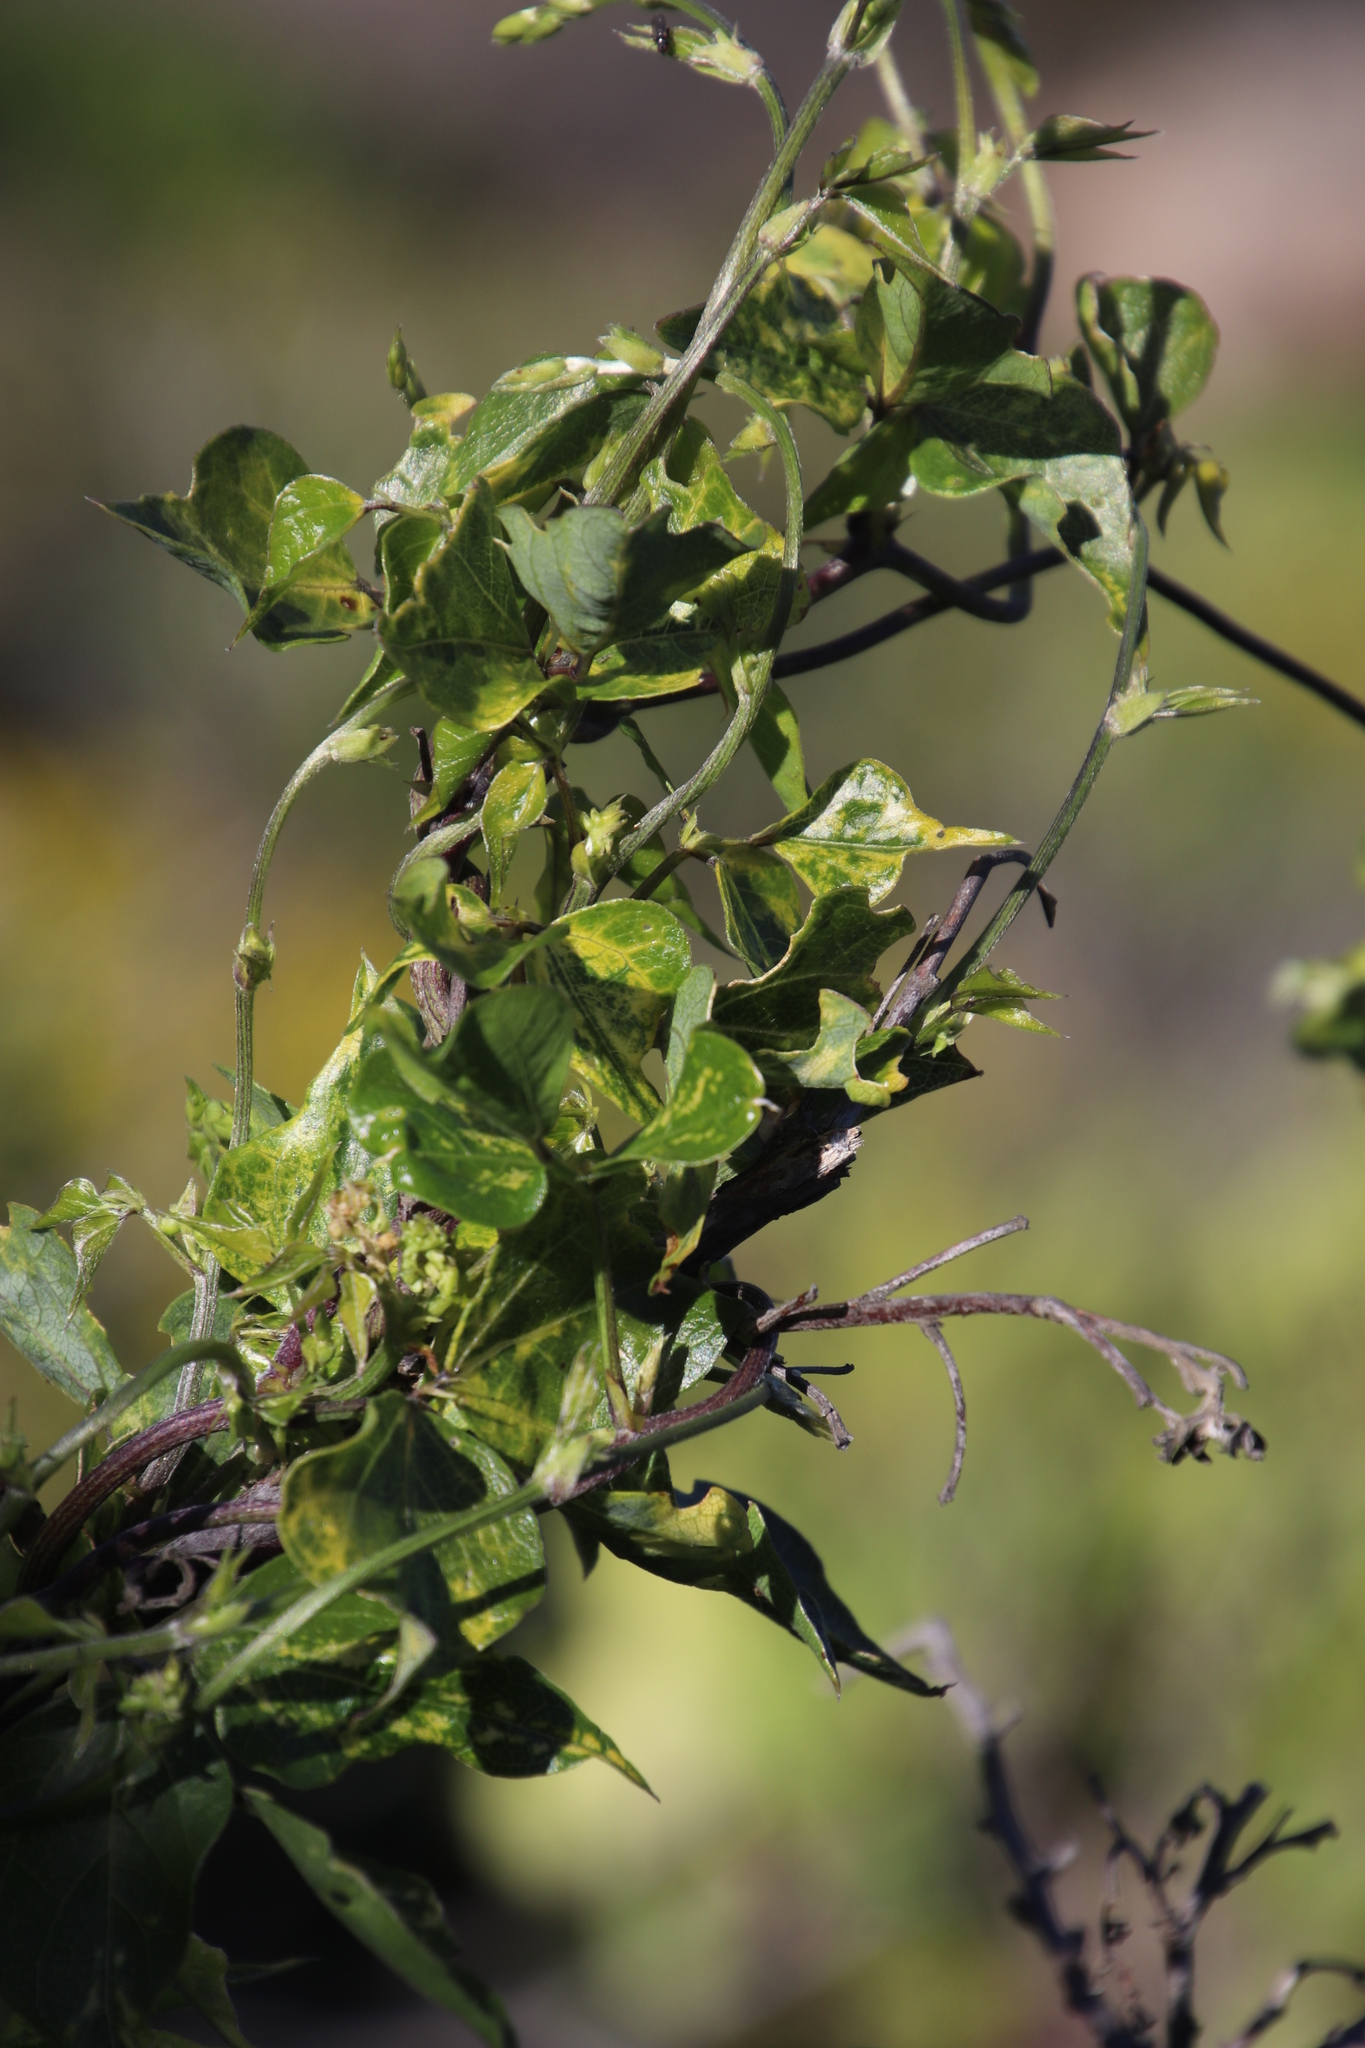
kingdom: Plantae
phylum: Tracheophyta
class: Magnoliopsida
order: Fabales
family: Fabaceae
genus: Dipogon
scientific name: Dipogon lignosus
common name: Okie bean
